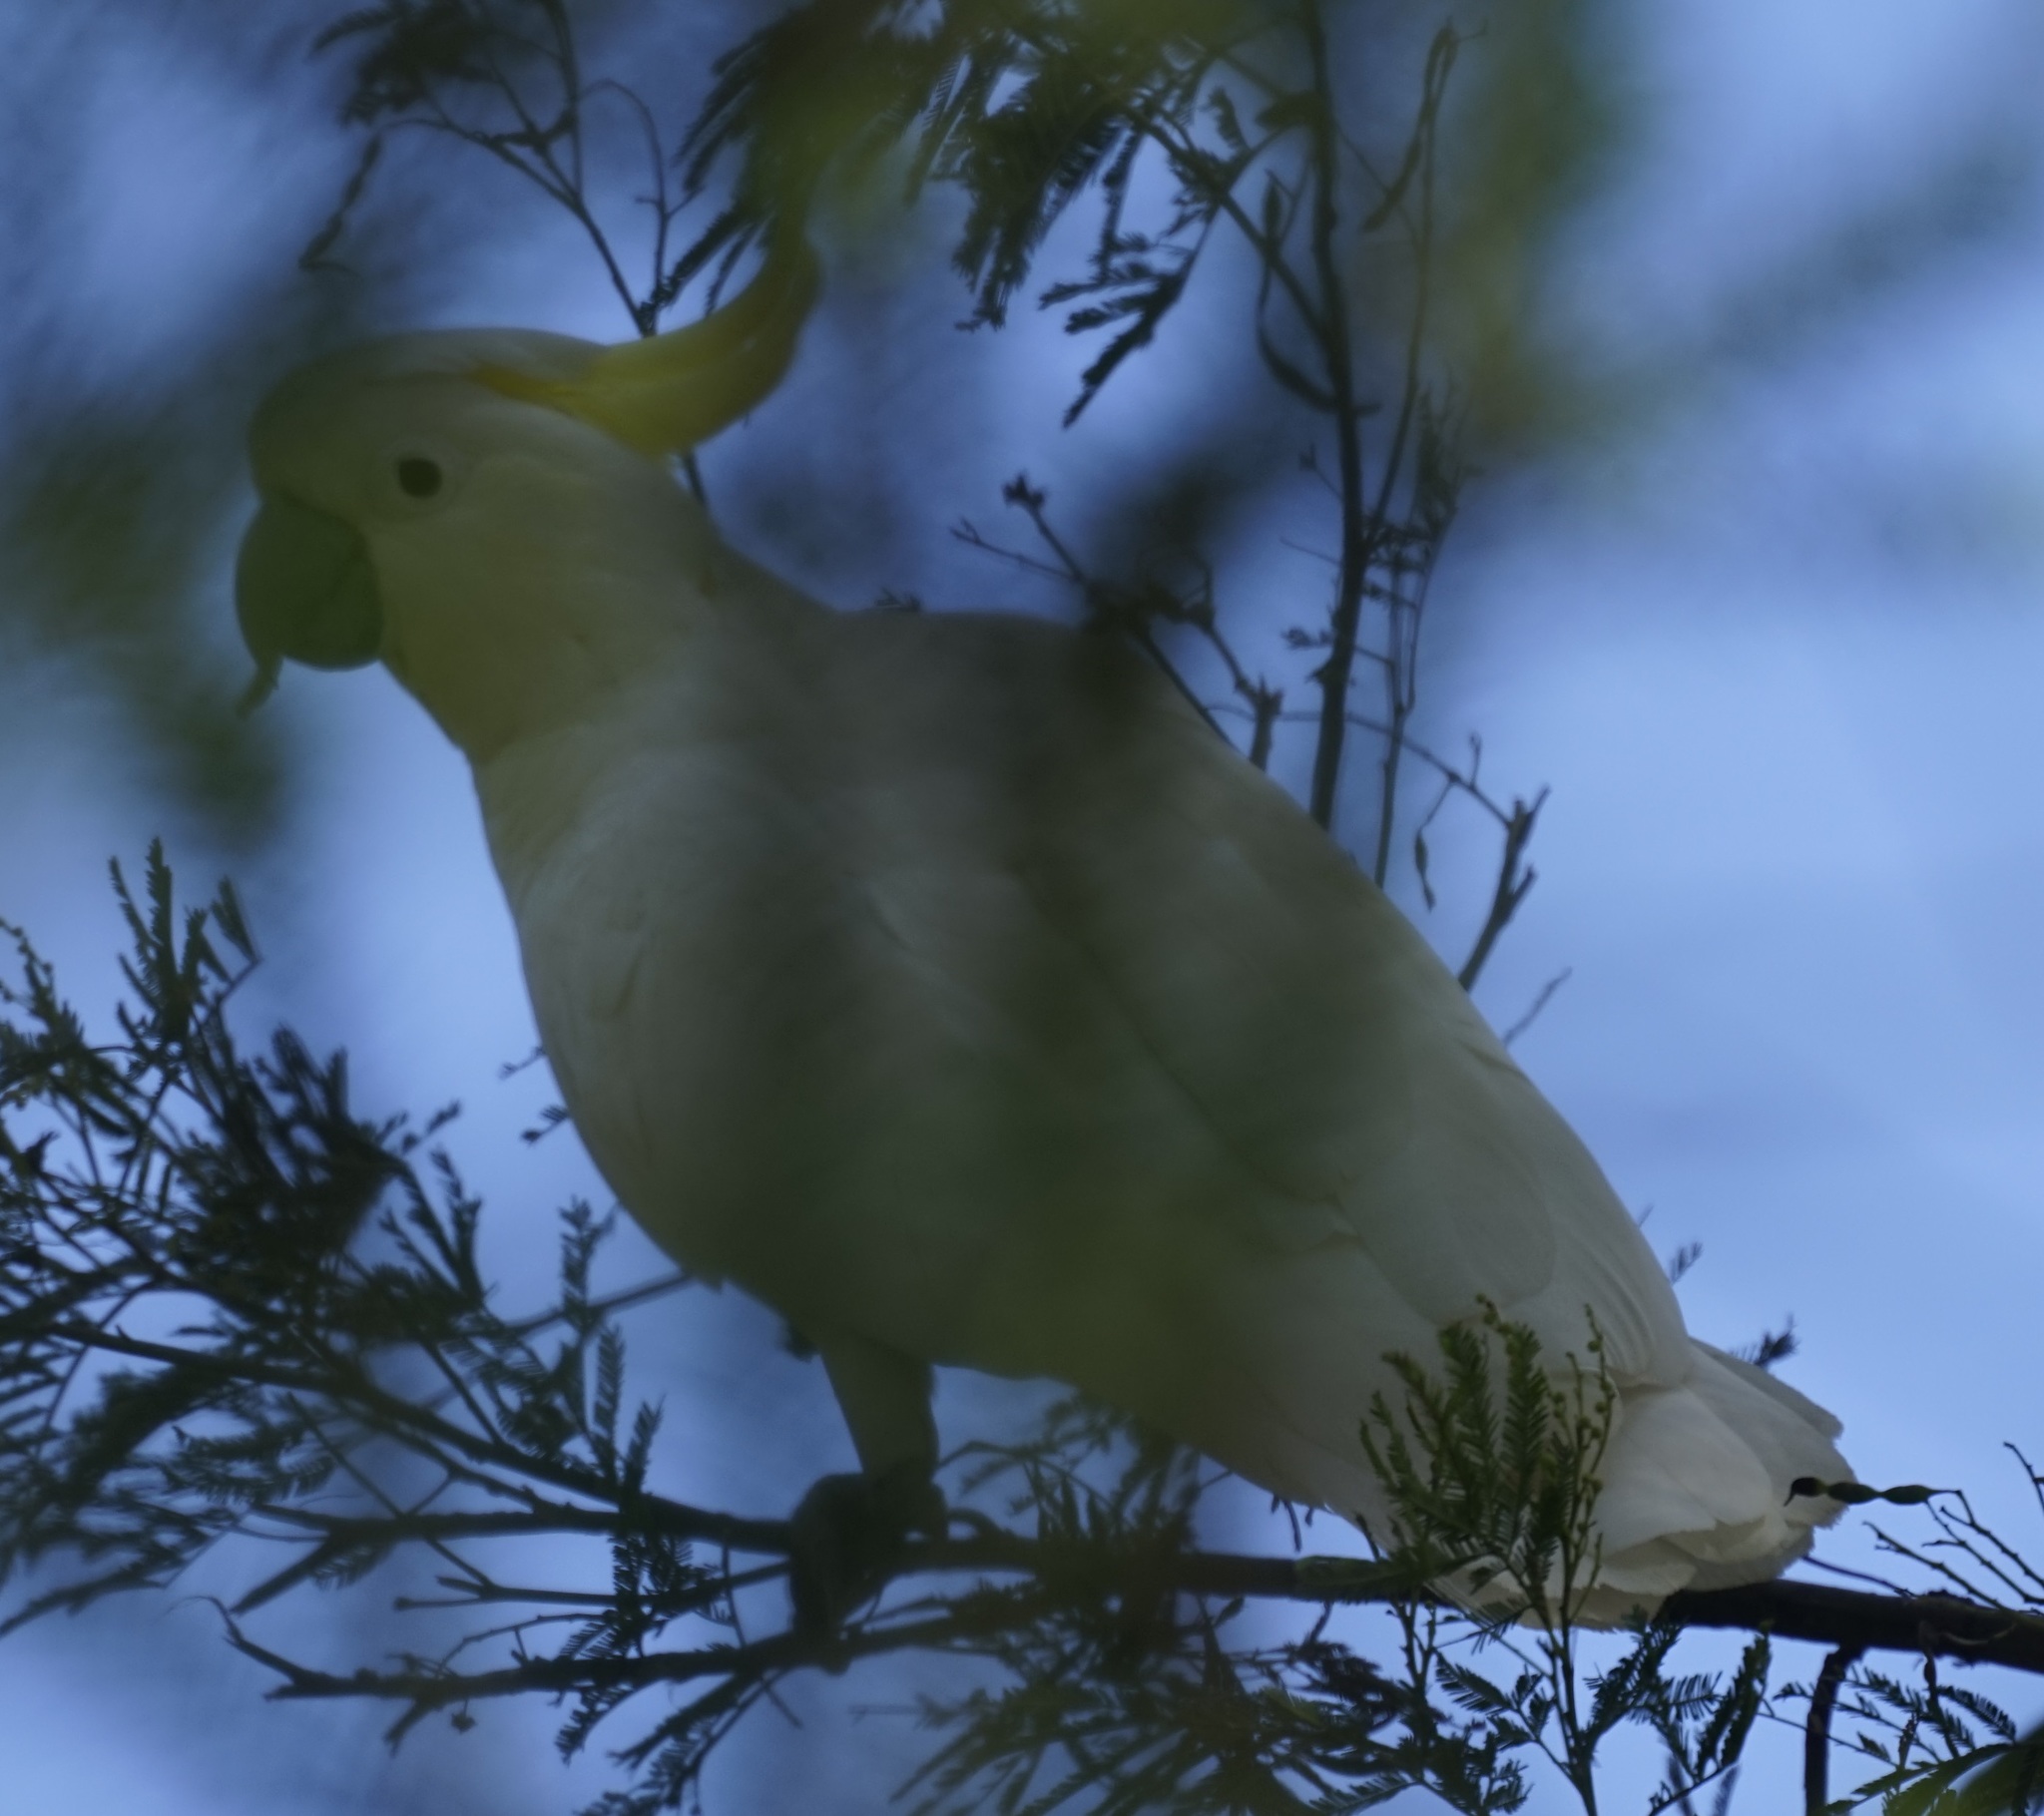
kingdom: Animalia
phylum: Chordata
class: Aves
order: Psittaciformes
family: Psittacidae
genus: Cacatua
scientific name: Cacatua galerita
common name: Sulphur-crested cockatoo
